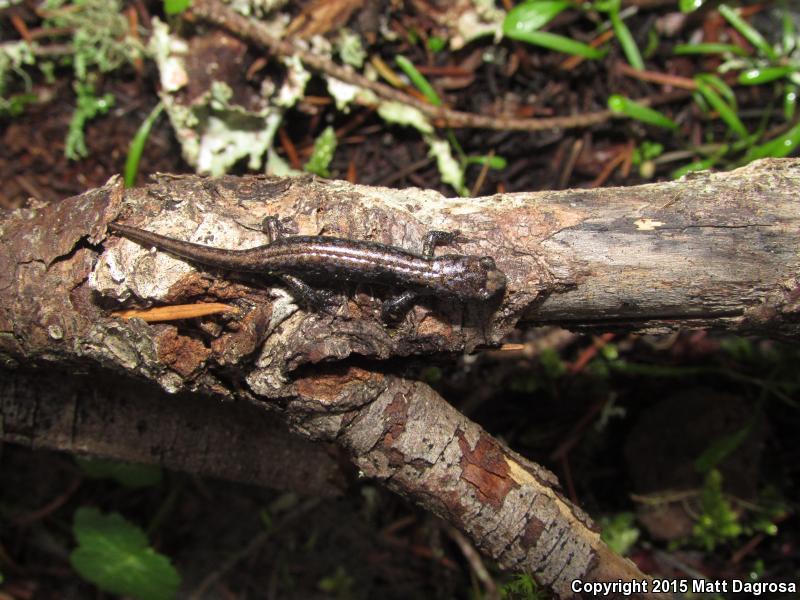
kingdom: Animalia
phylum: Chordata
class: Amphibia
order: Caudata
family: Plethodontidae
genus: Aneides
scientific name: Aneides ferreus
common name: Clouded salamander
